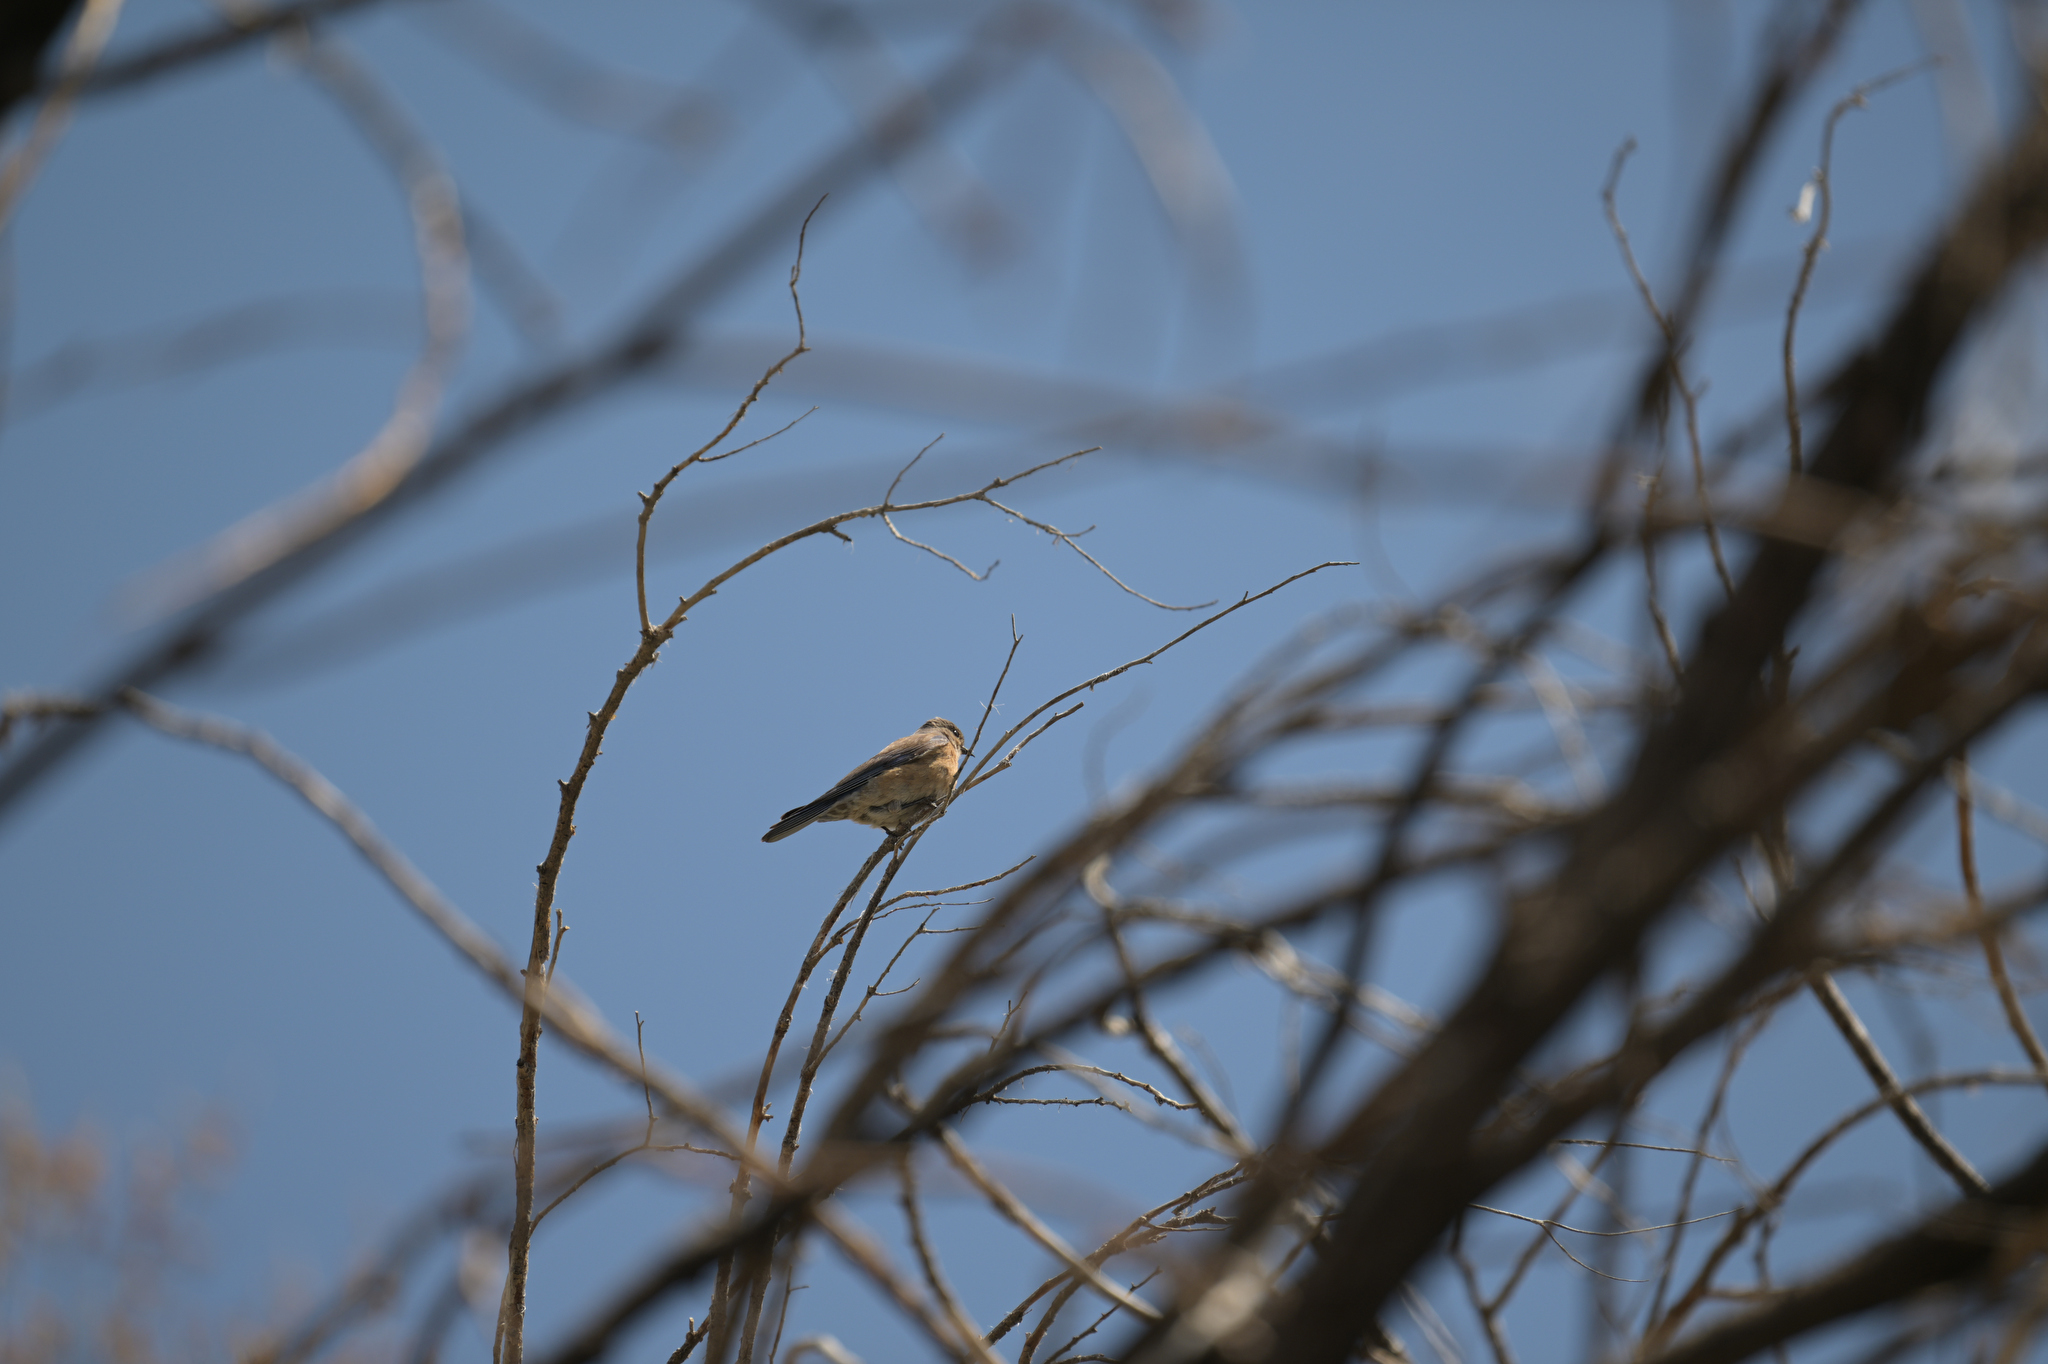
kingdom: Animalia
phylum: Chordata
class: Aves
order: Passeriformes
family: Parulidae
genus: Setophaga
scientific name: Setophaga coronata
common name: Myrtle warbler
